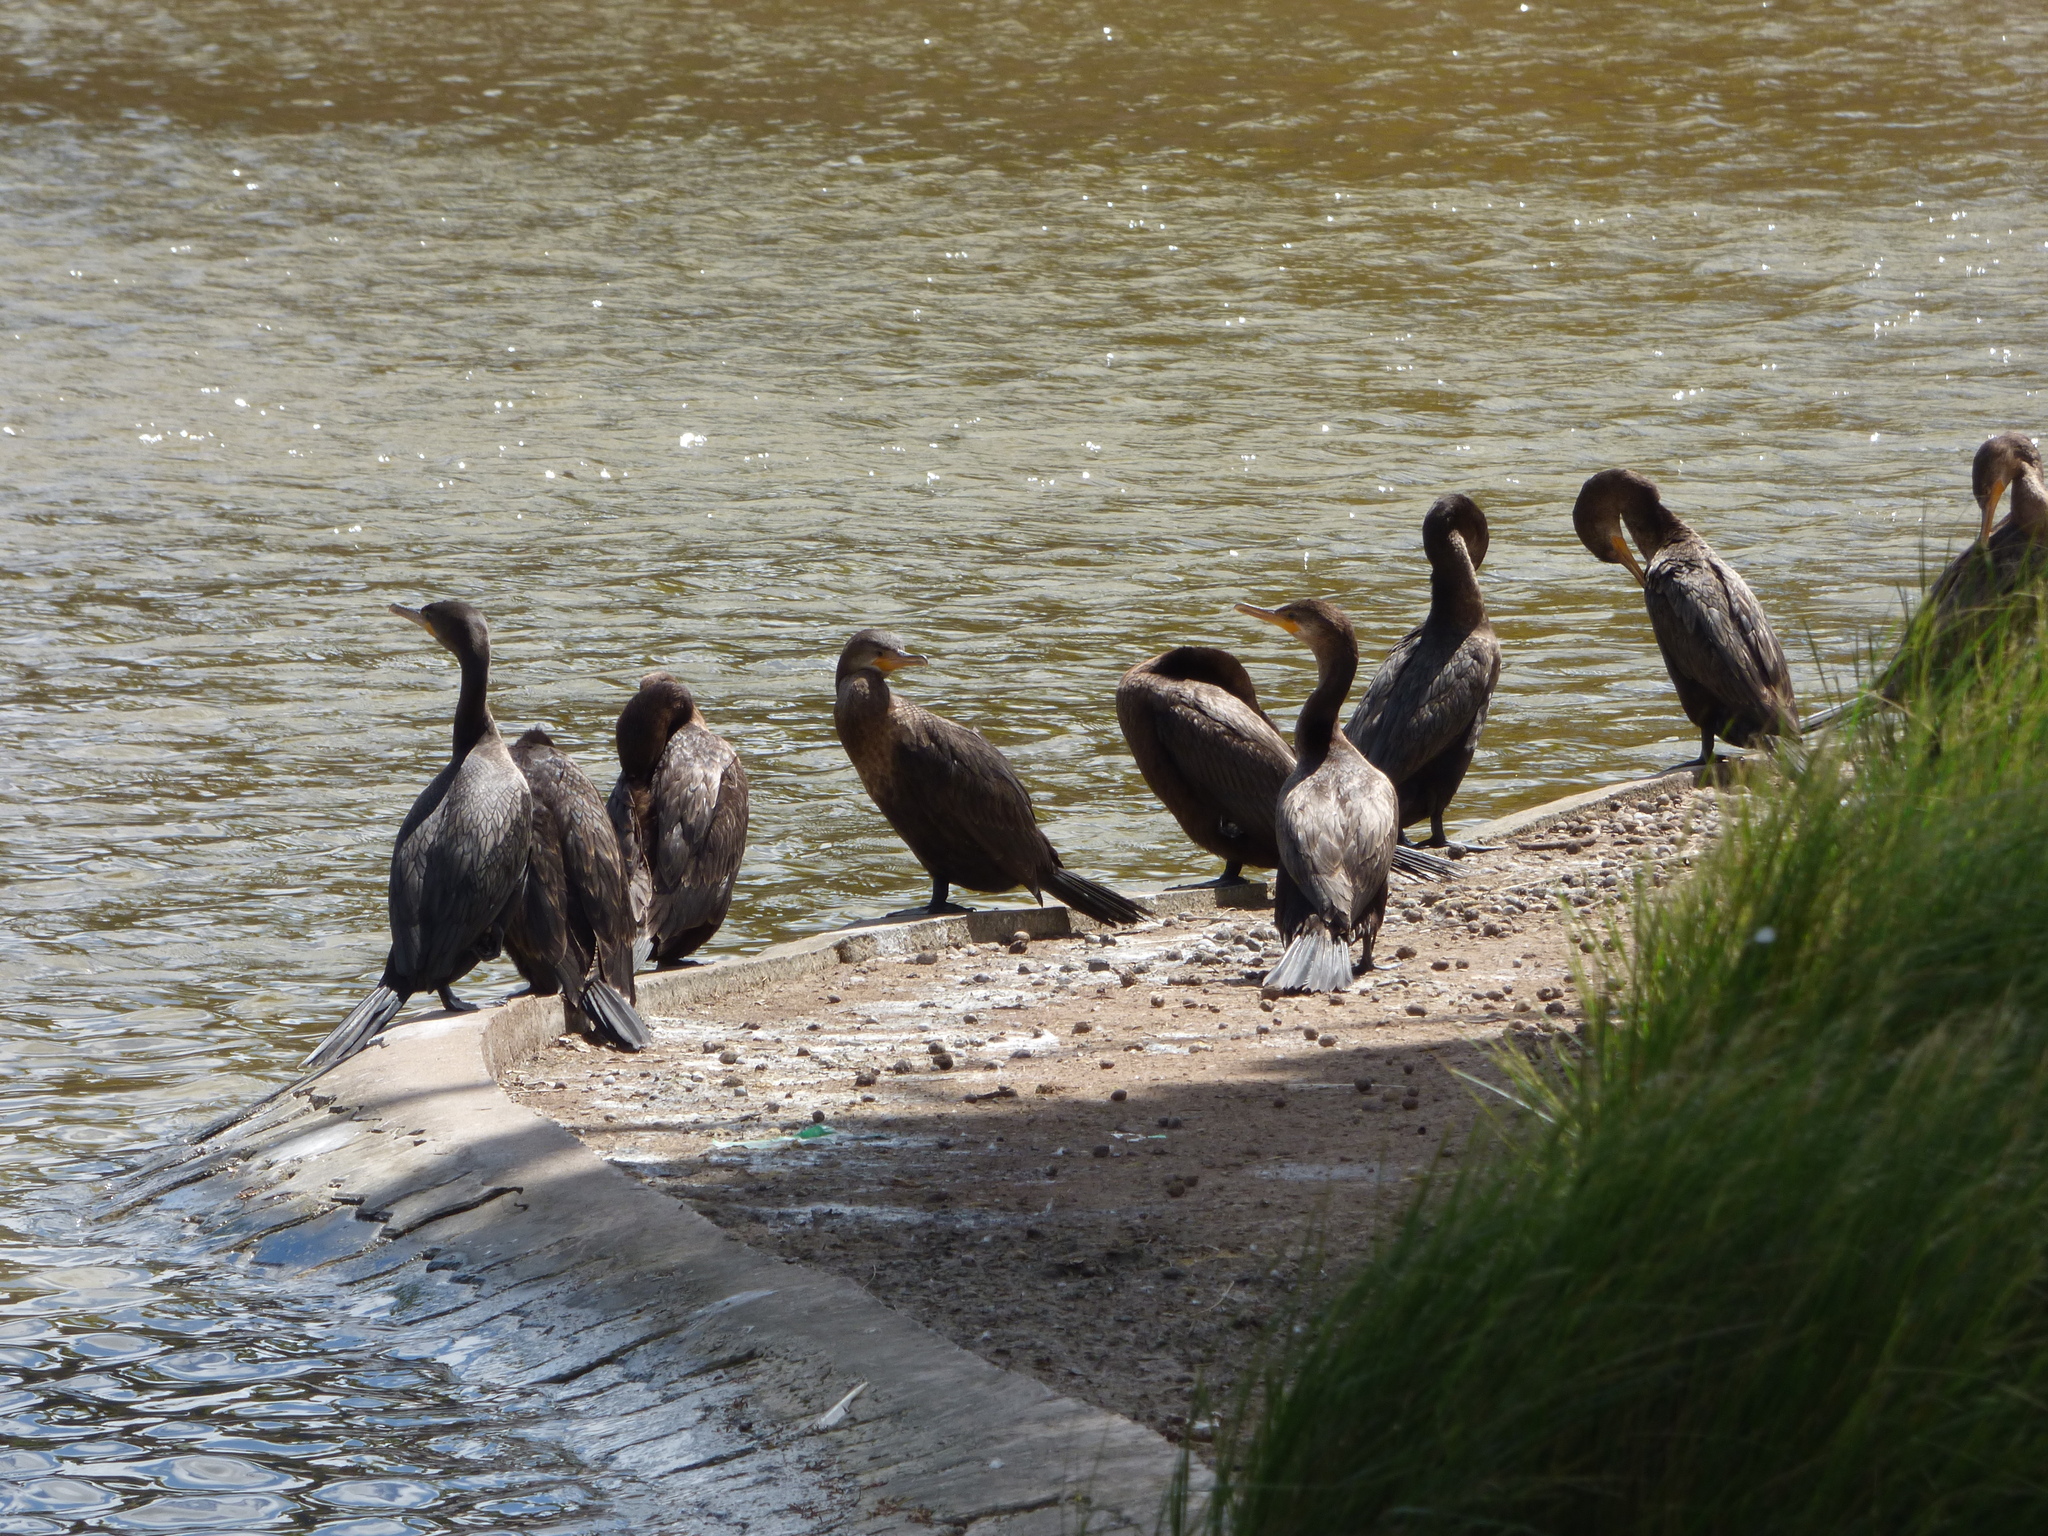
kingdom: Animalia
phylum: Chordata
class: Aves
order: Suliformes
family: Phalacrocoracidae
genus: Phalacrocorax
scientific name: Phalacrocorax brasilianus
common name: Neotropic cormorant
